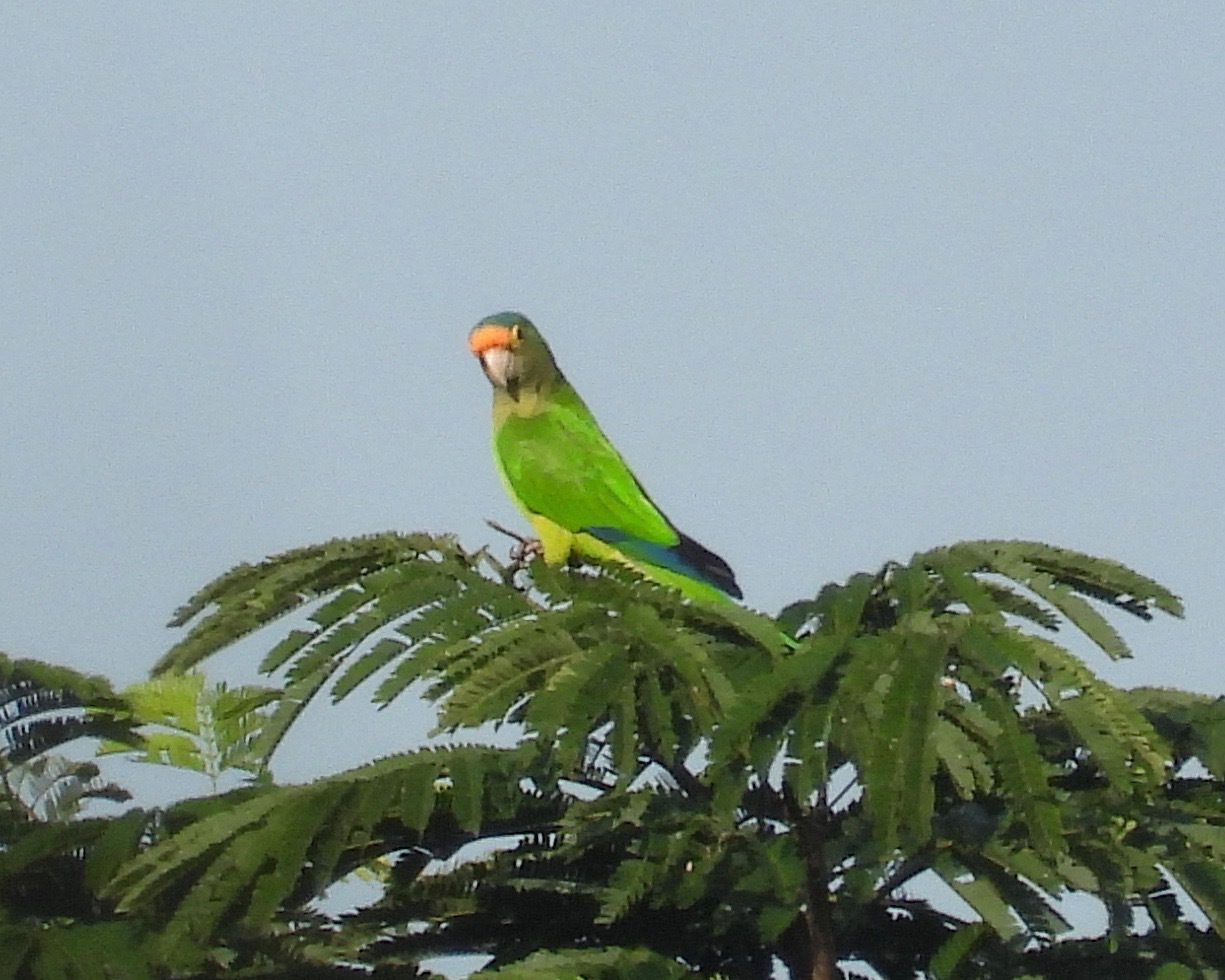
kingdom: Animalia
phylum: Chordata
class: Aves
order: Psittaciformes
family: Psittacidae
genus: Aratinga
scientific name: Aratinga canicularis
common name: Orange-fronted parakeet
